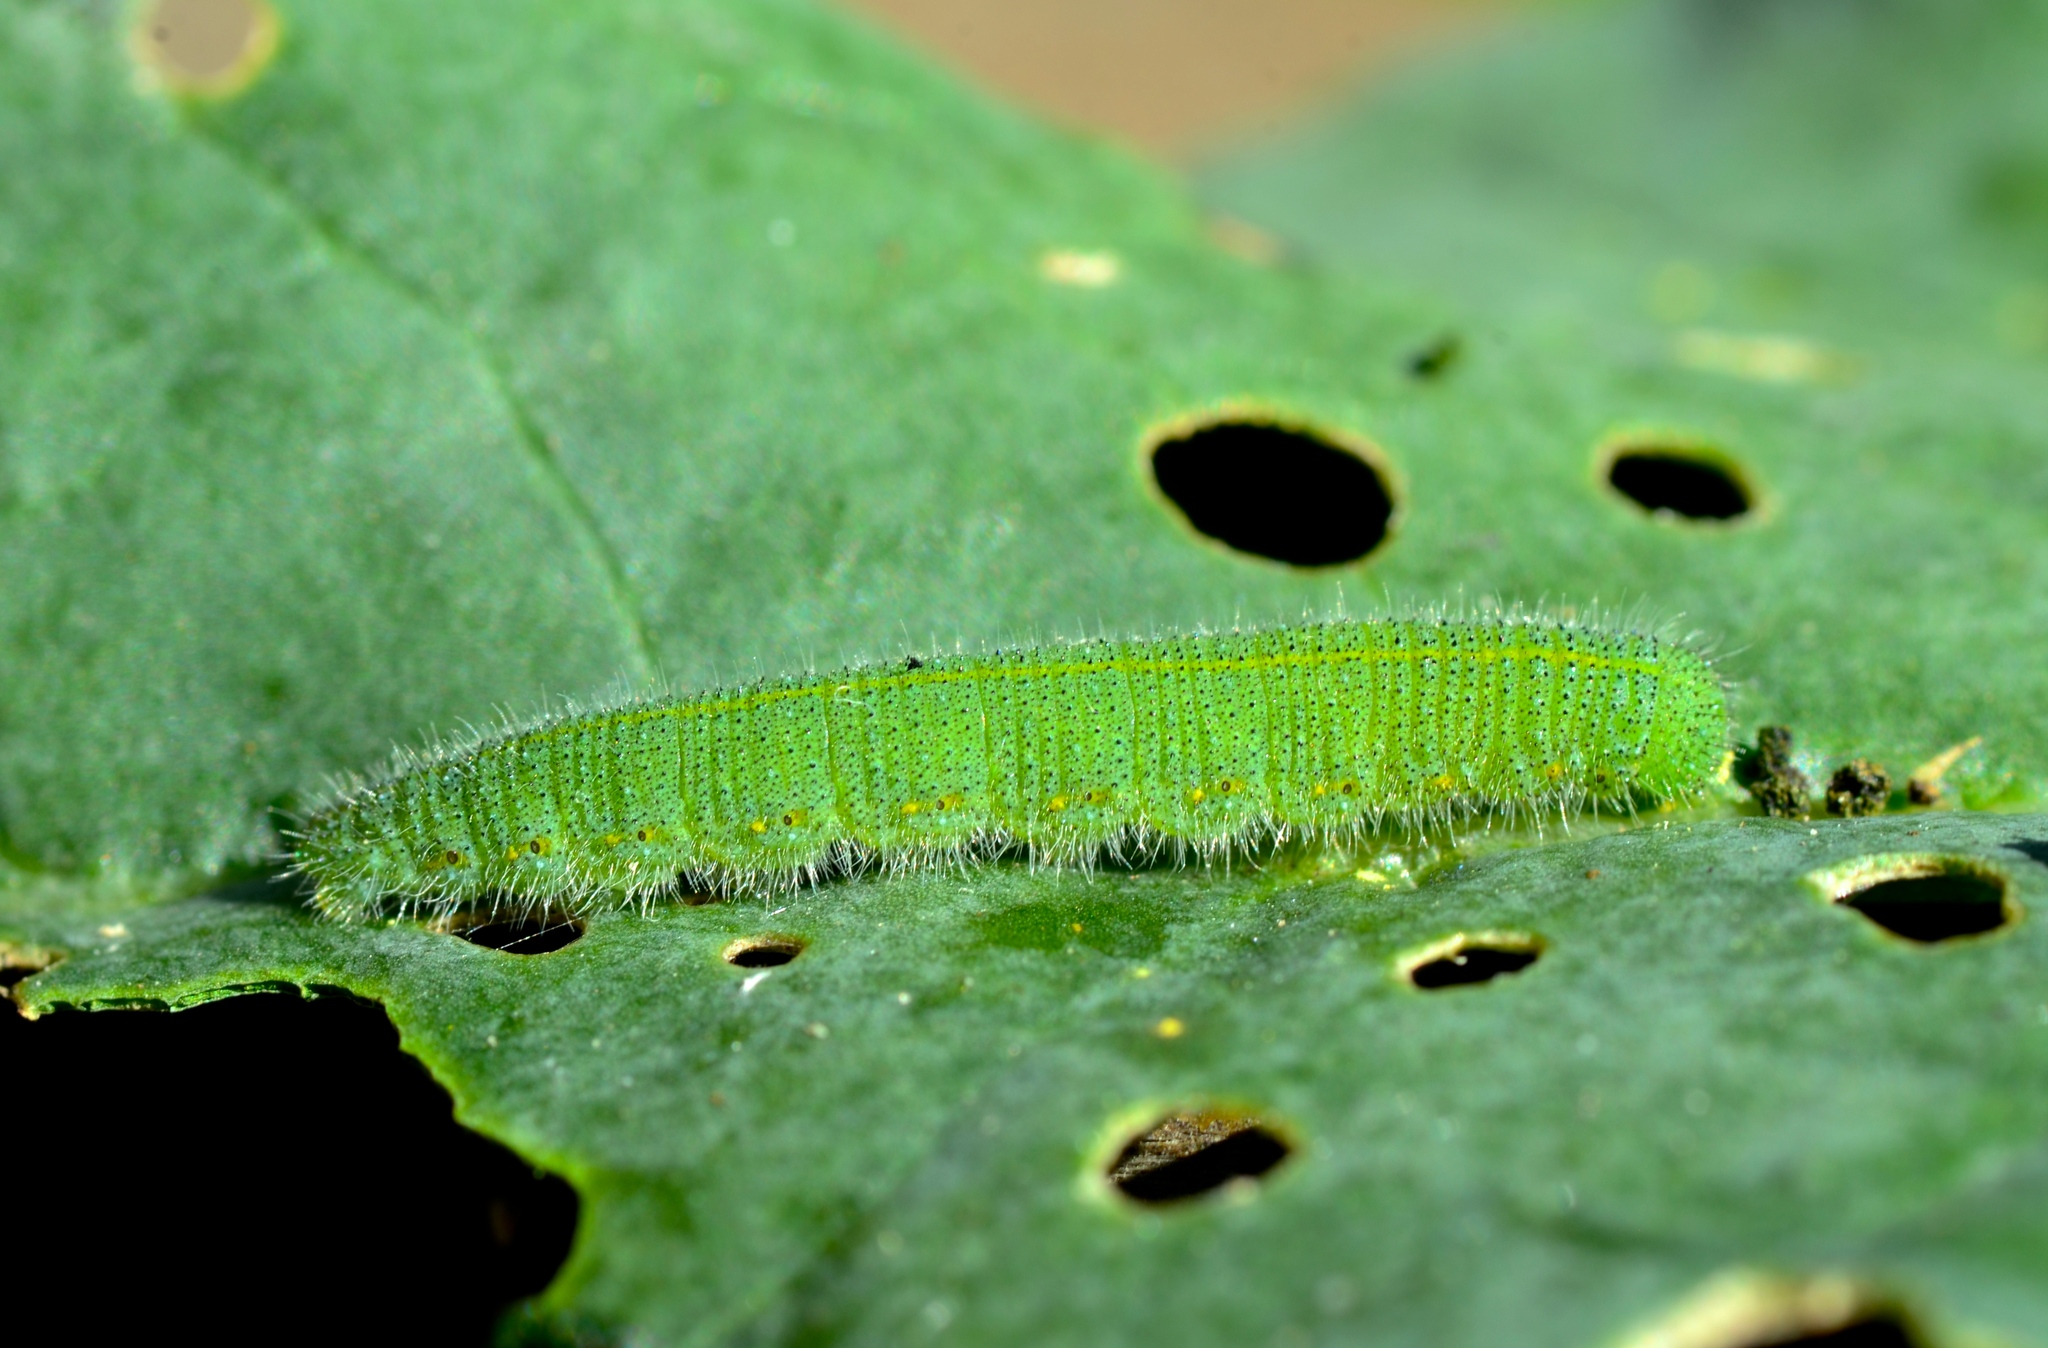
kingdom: Animalia
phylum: Arthropoda
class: Insecta
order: Lepidoptera
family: Pieridae
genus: Pieris
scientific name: Pieris rapae
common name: Small white
